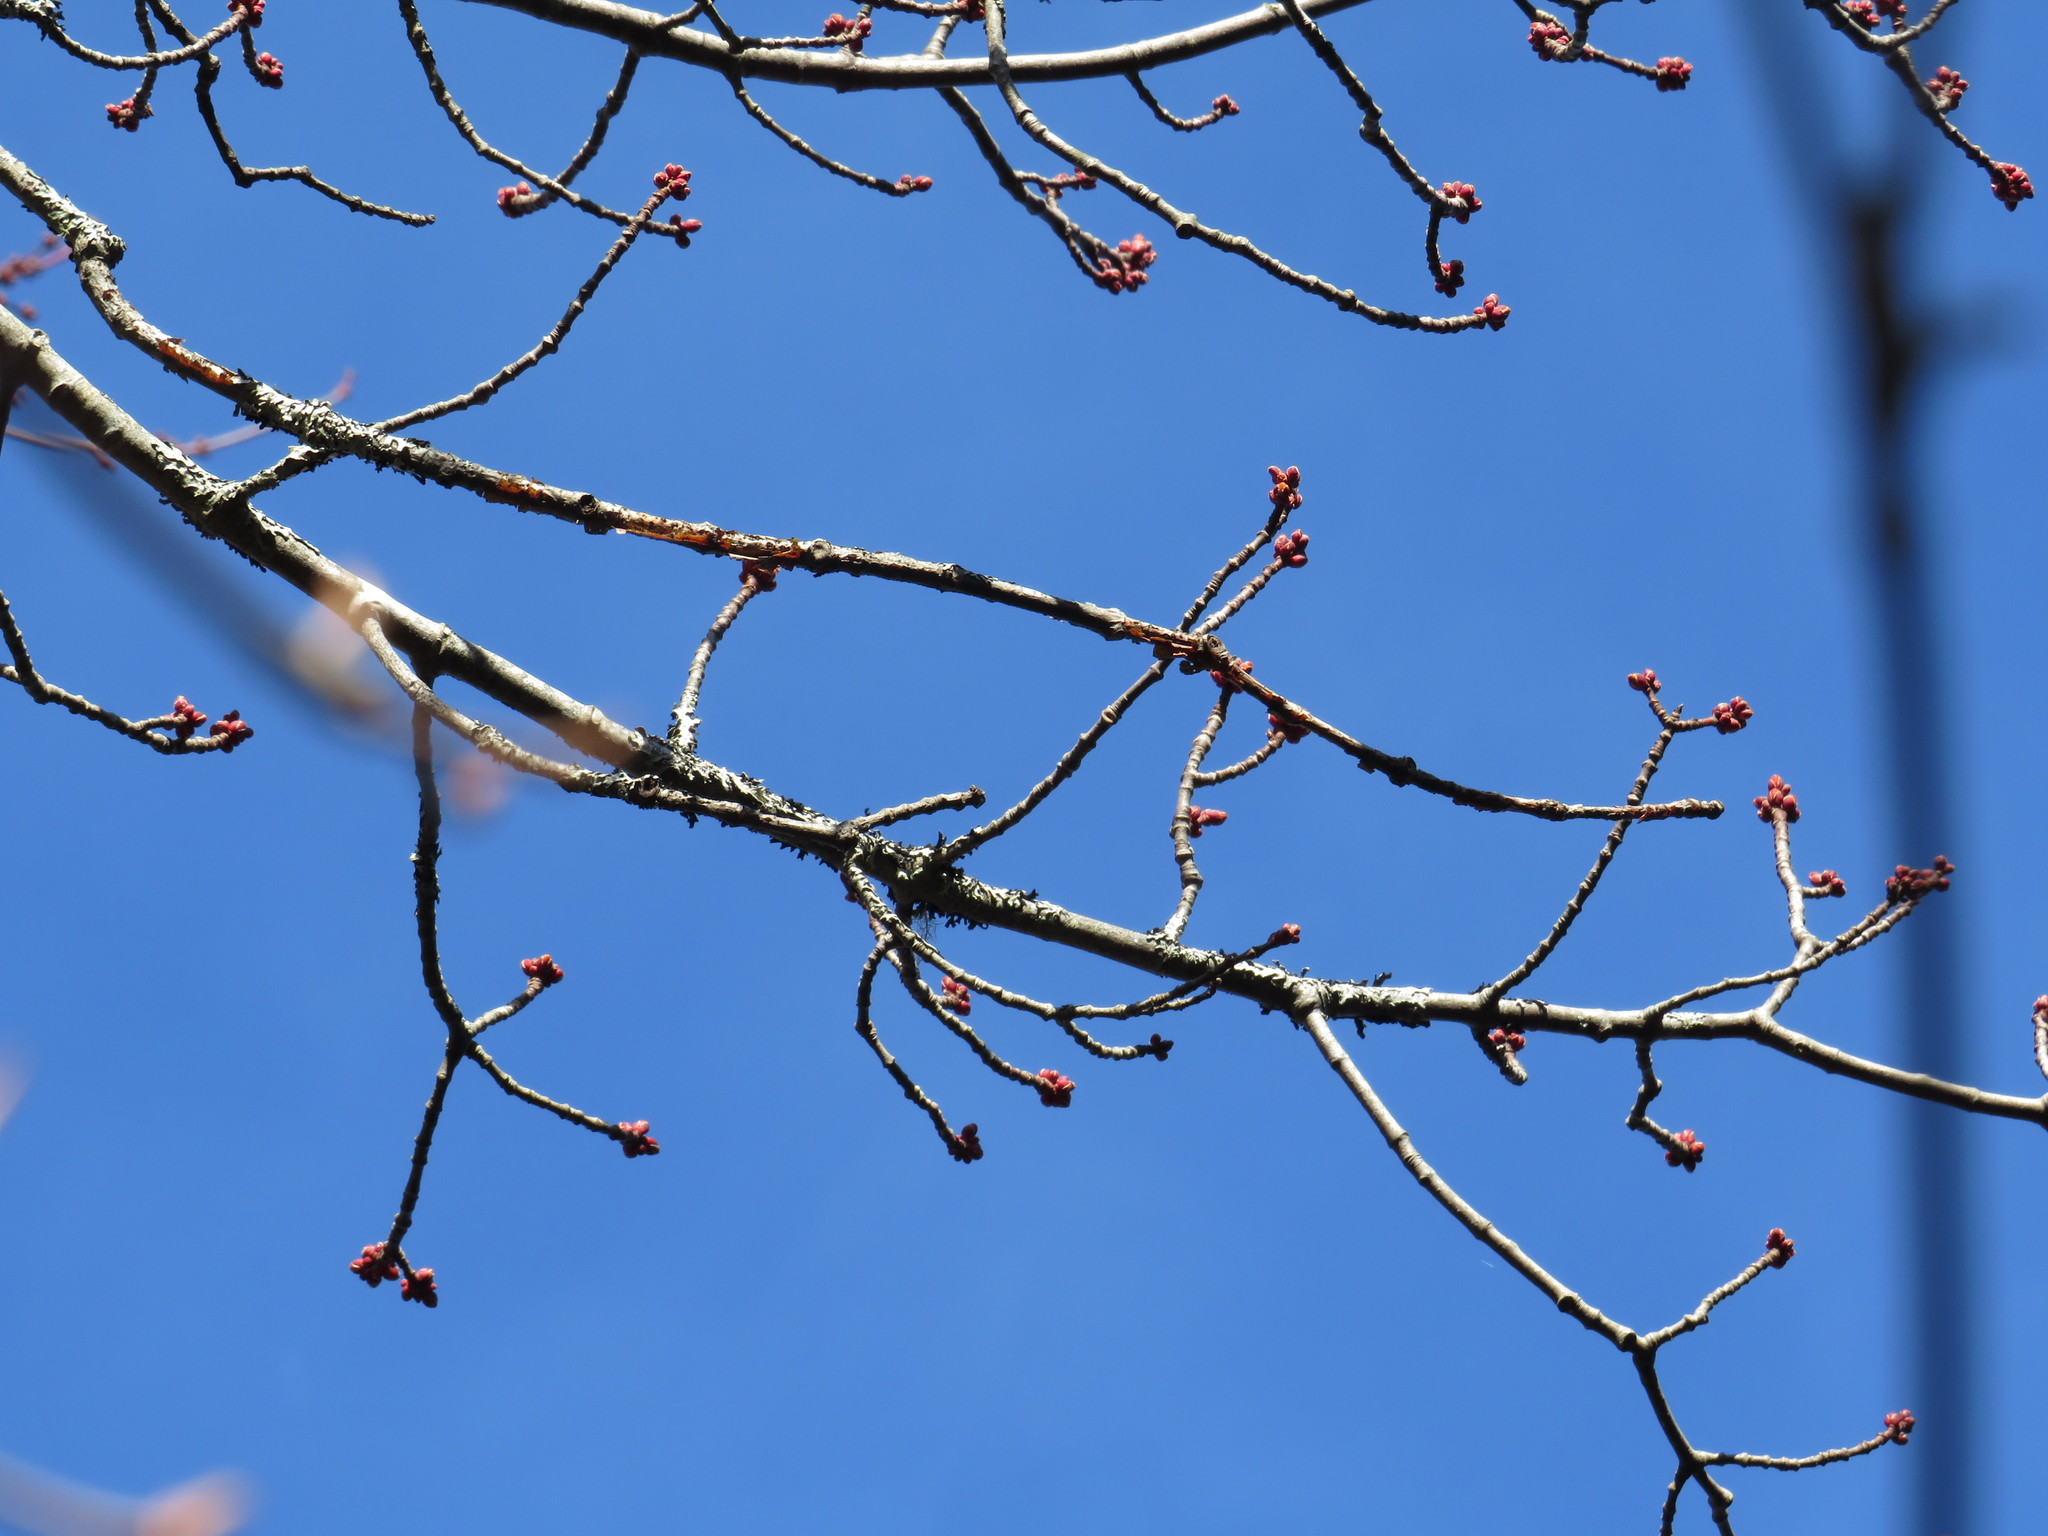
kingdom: Plantae
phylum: Tracheophyta
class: Magnoliopsida
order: Sapindales
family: Sapindaceae
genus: Acer
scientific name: Acer rubrum
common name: Red maple
